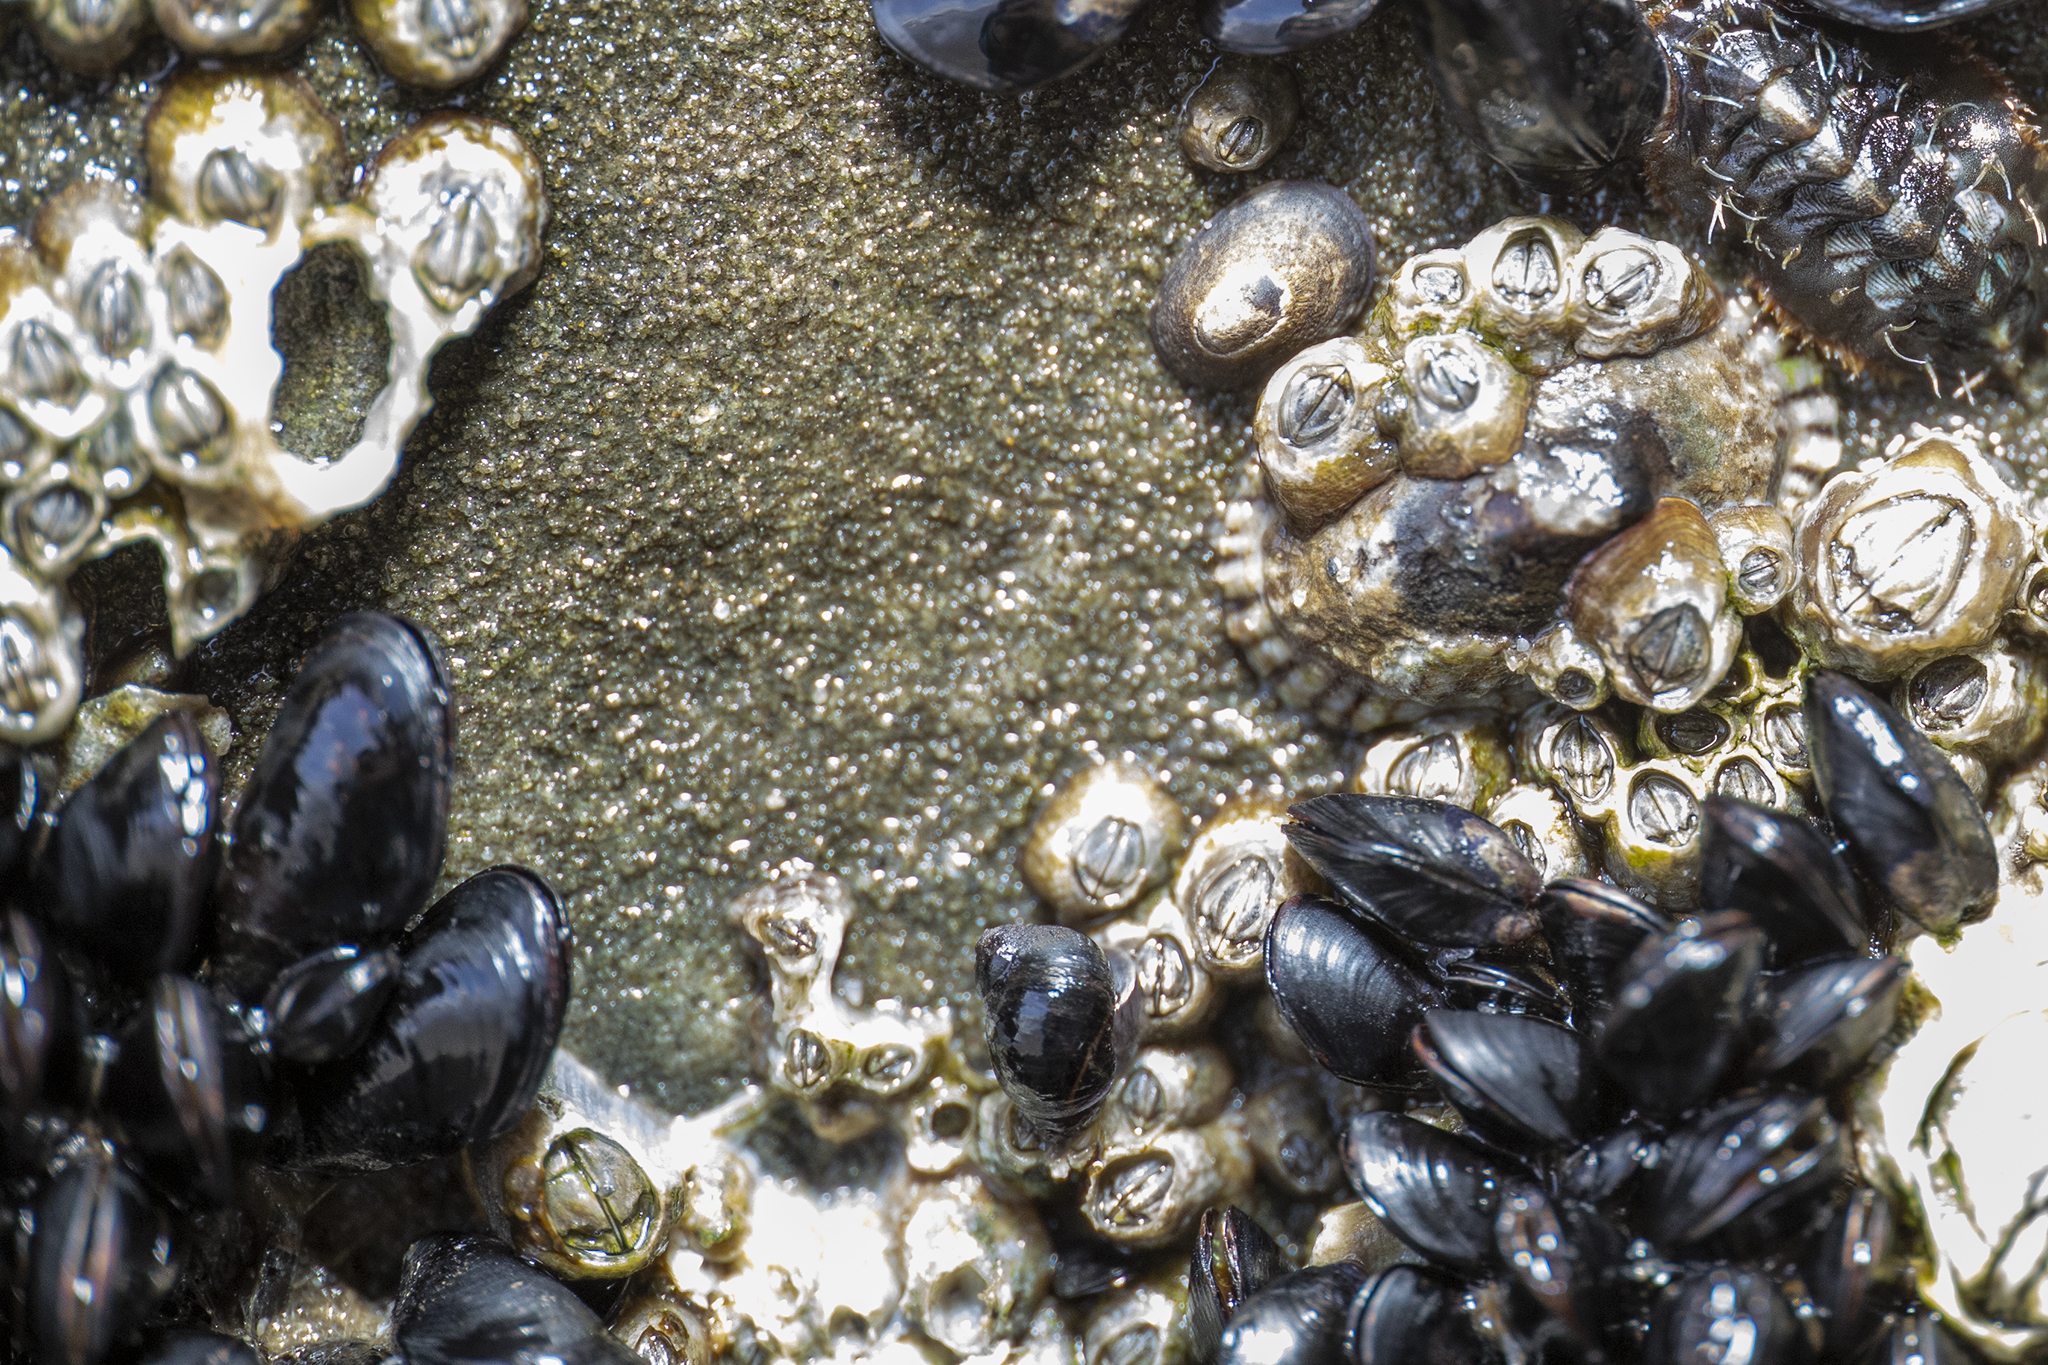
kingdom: Animalia
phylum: Mollusca
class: Bivalvia
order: Mytilida
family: Mytilidae
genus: Xenostrobus
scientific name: Xenostrobus neozelanicus
